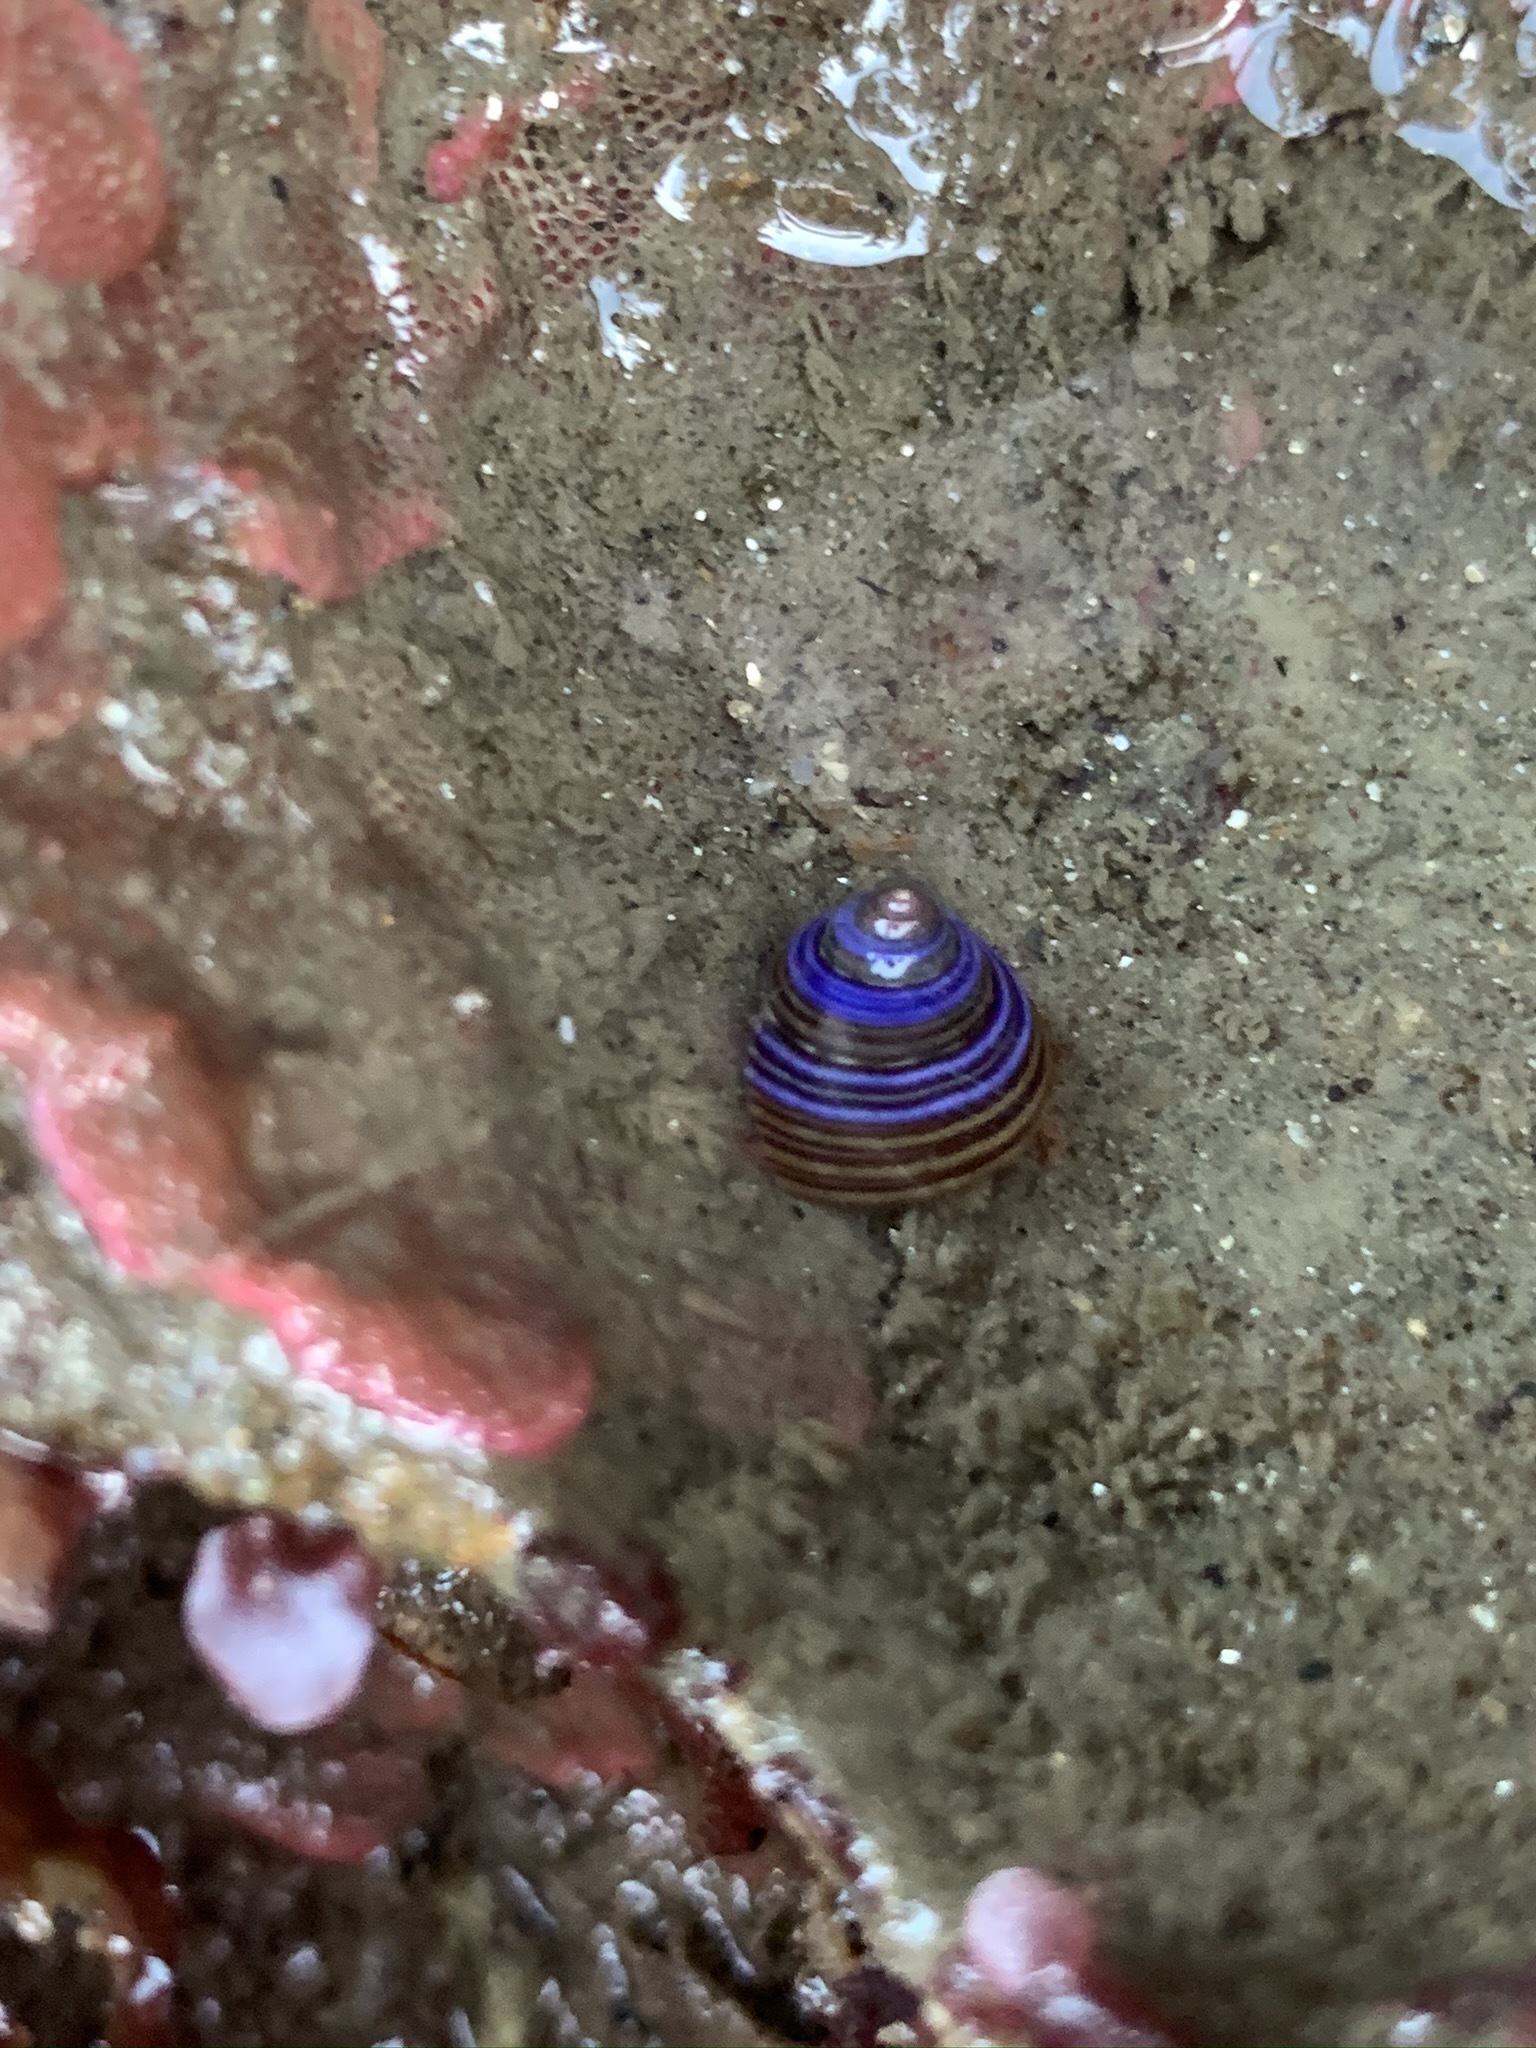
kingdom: Animalia
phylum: Mollusca
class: Gastropoda
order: Trochida
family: Calliostomatidae
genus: Calliostoma
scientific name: Calliostoma ligatum
